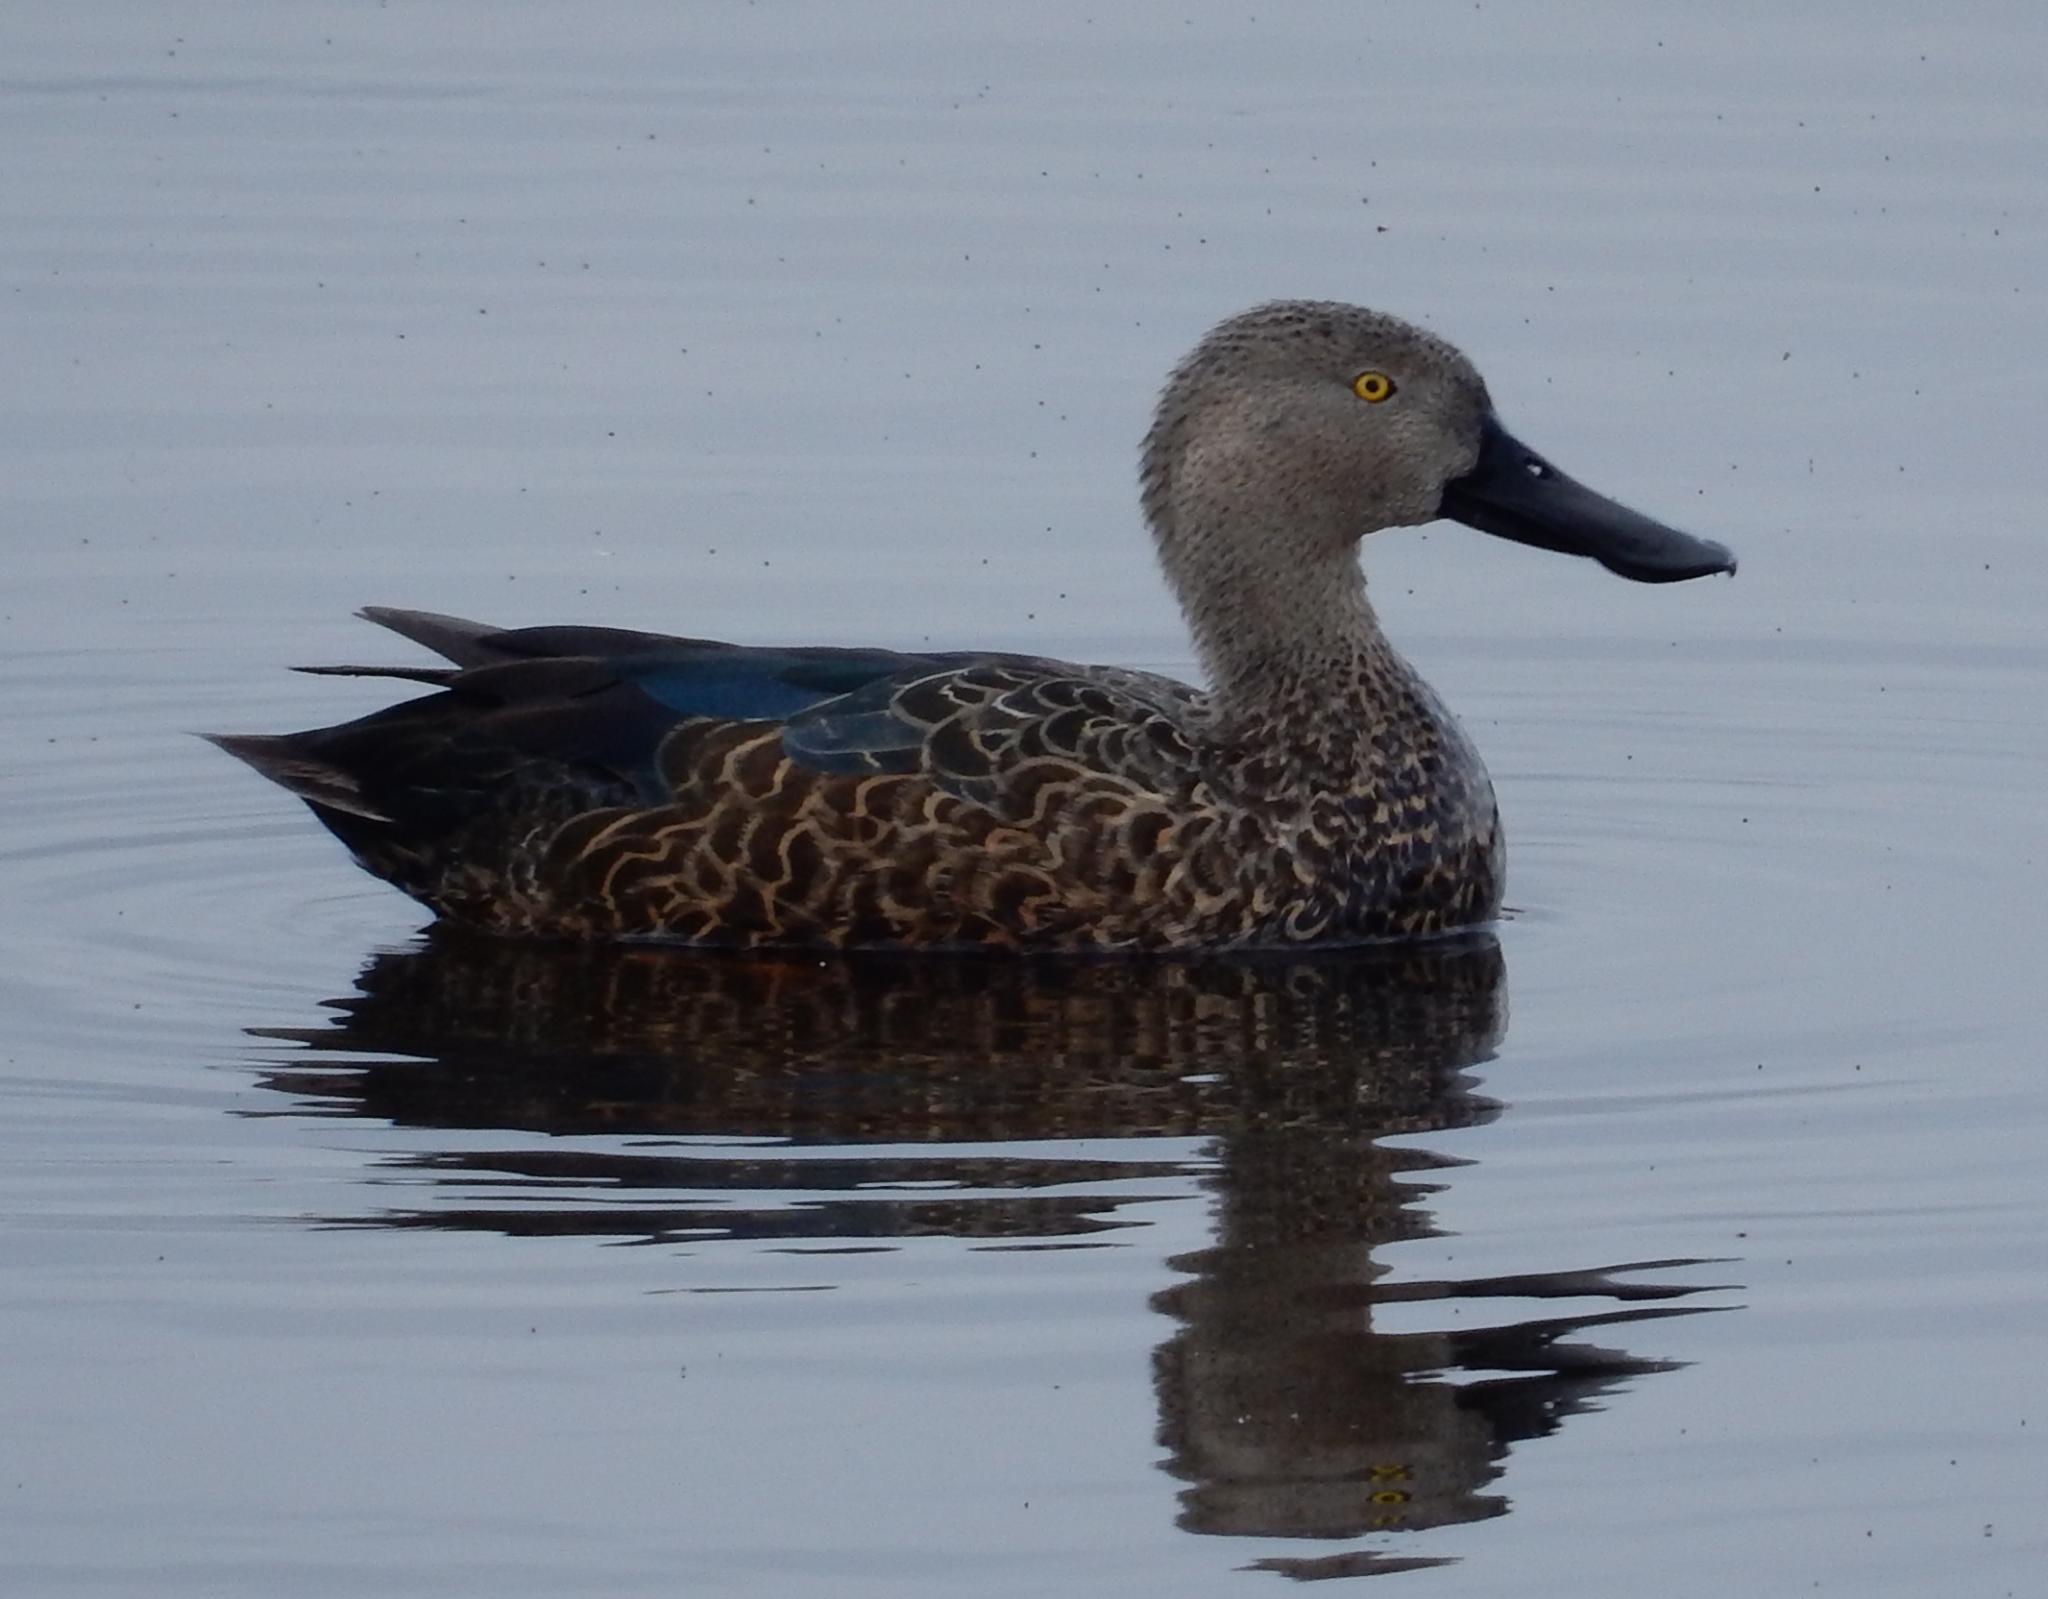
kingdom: Animalia
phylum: Chordata
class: Aves
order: Anseriformes
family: Anatidae
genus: Spatula
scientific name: Spatula smithii
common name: Cape shoveler
